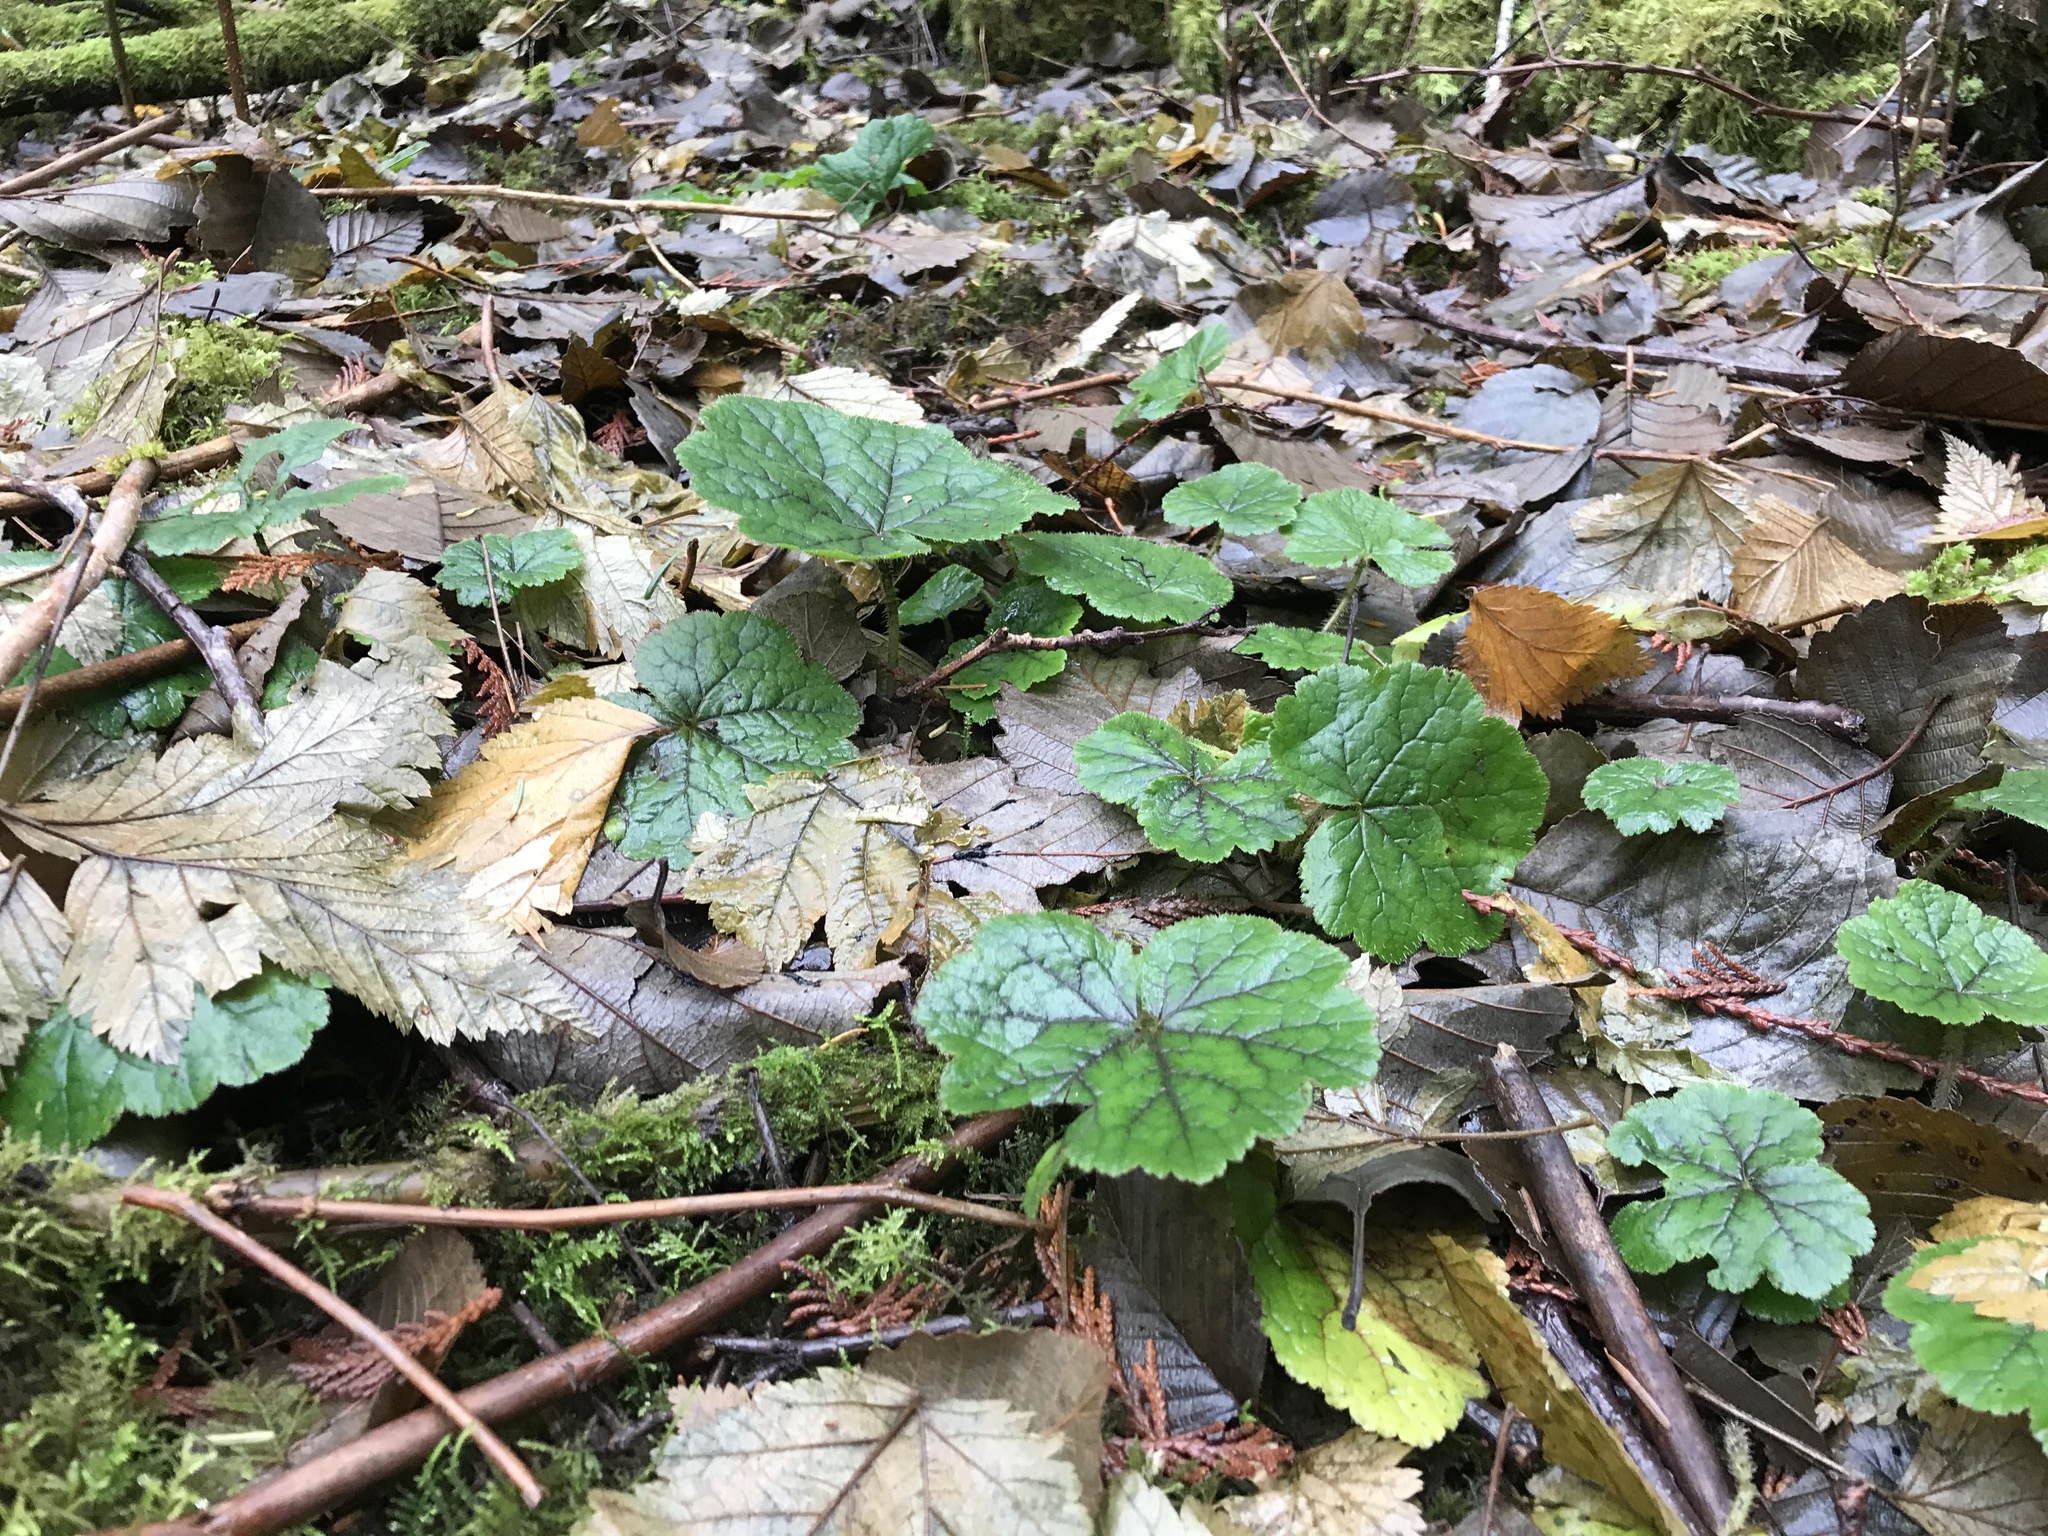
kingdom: Plantae
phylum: Tracheophyta
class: Magnoliopsida
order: Saxifragales
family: Saxifragaceae
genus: Tellima
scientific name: Tellima grandiflora
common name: Fringecups
